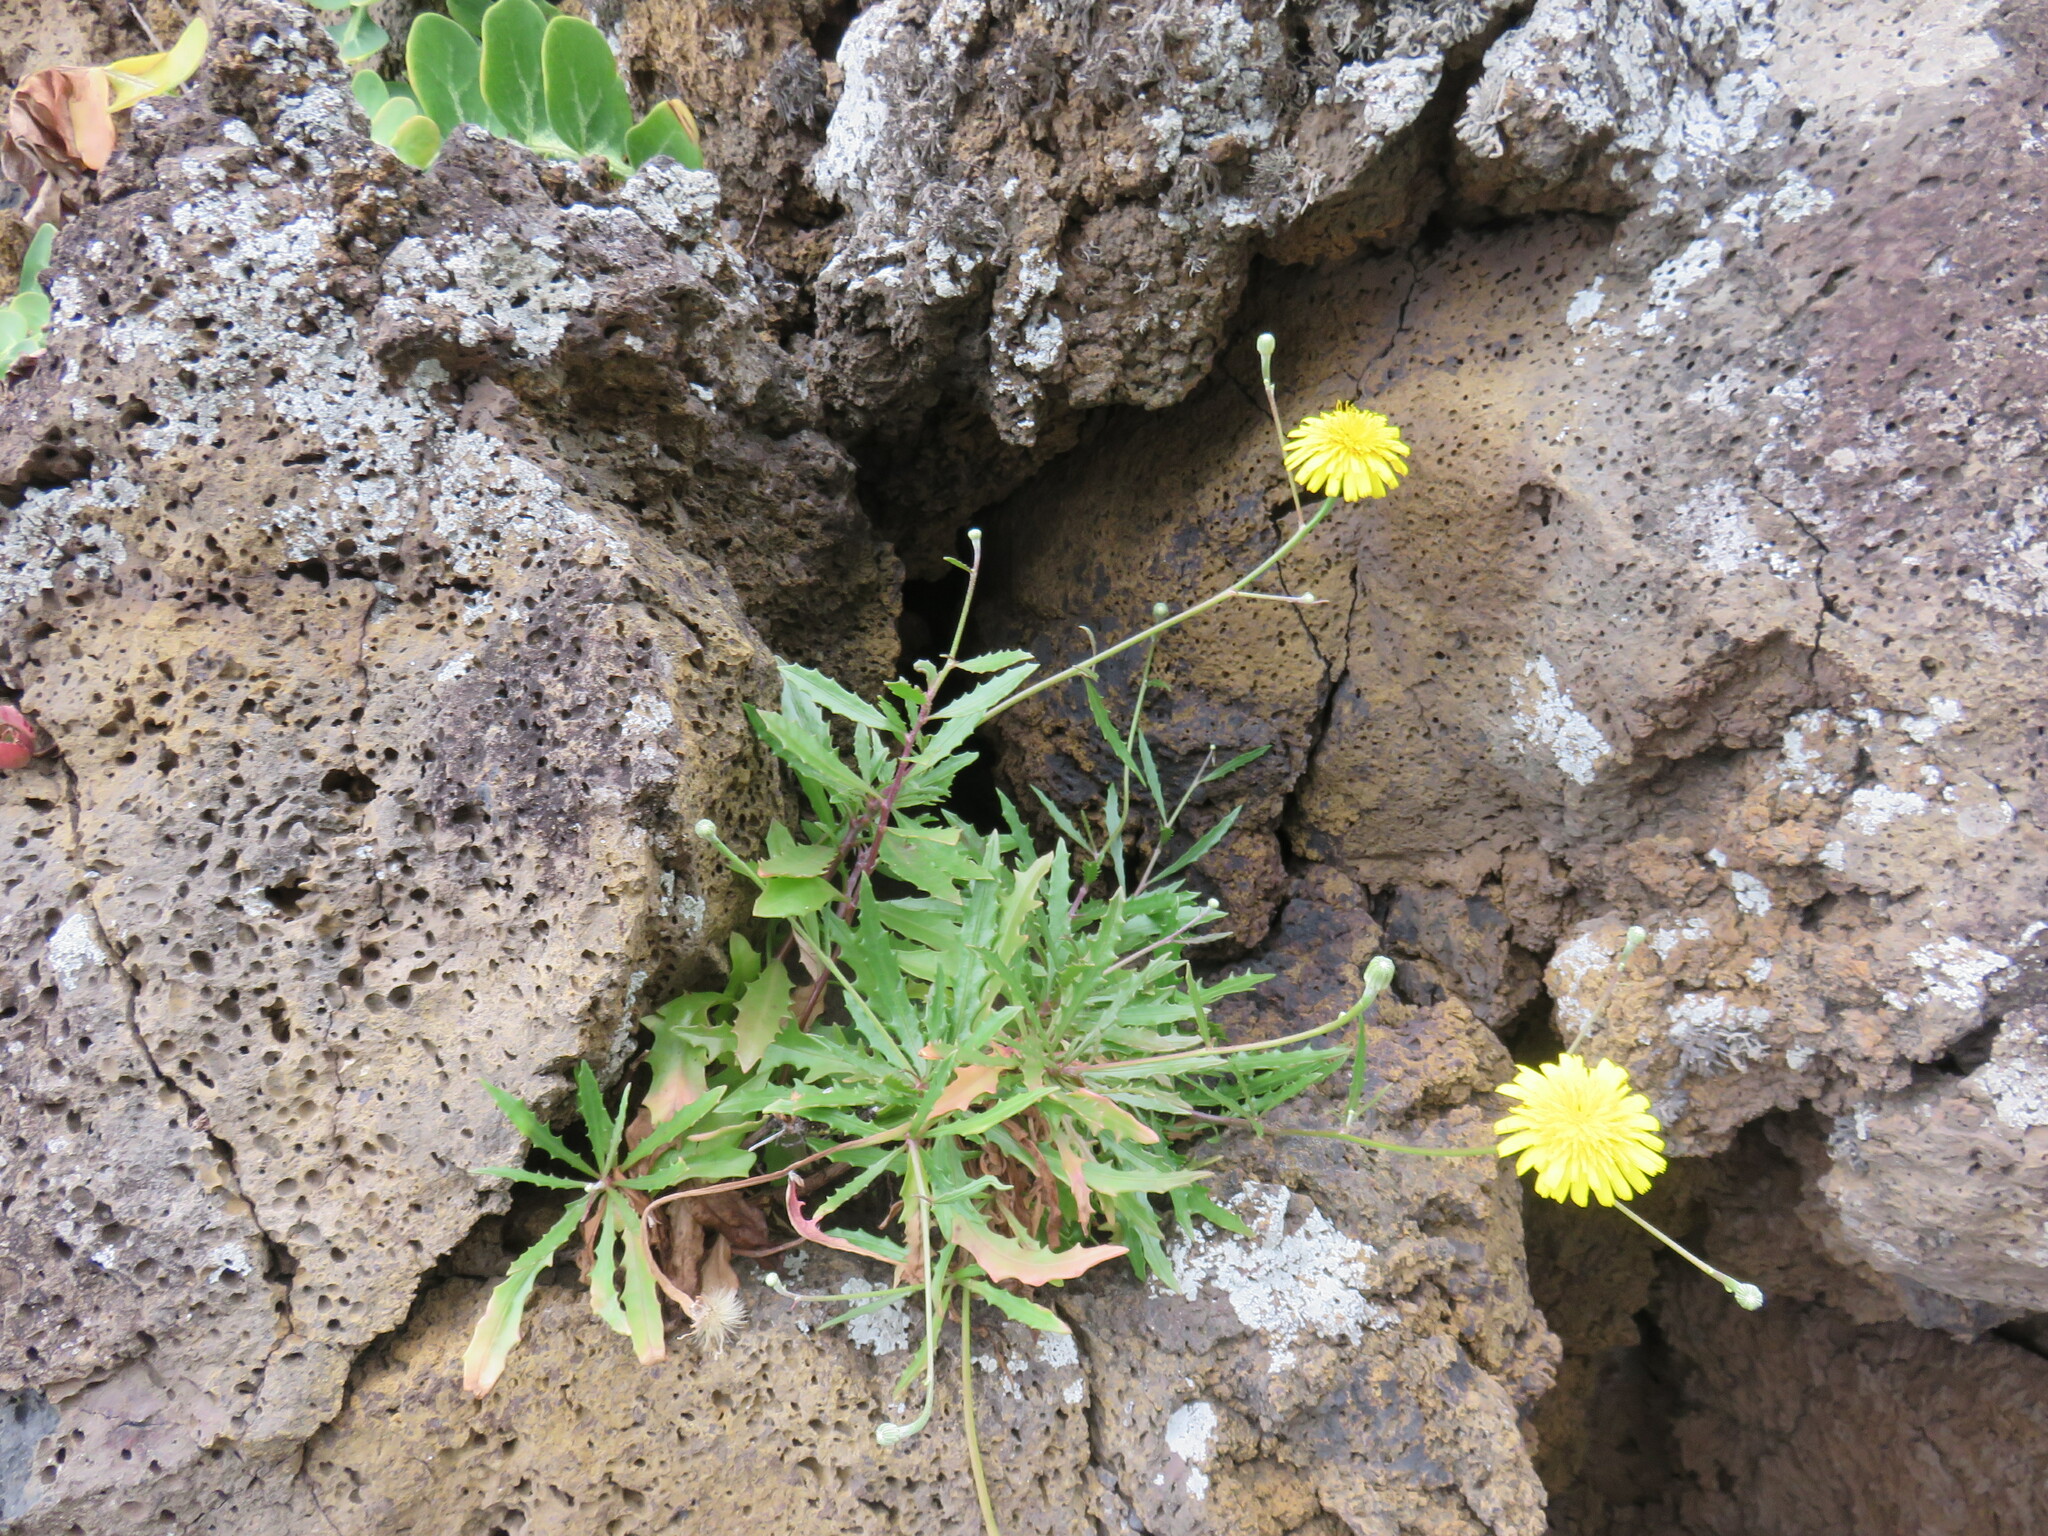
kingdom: Plantae
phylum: Tracheophyta
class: Magnoliopsida
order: Asterales
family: Asteraceae
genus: Tolpis
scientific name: Tolpis succulenta
